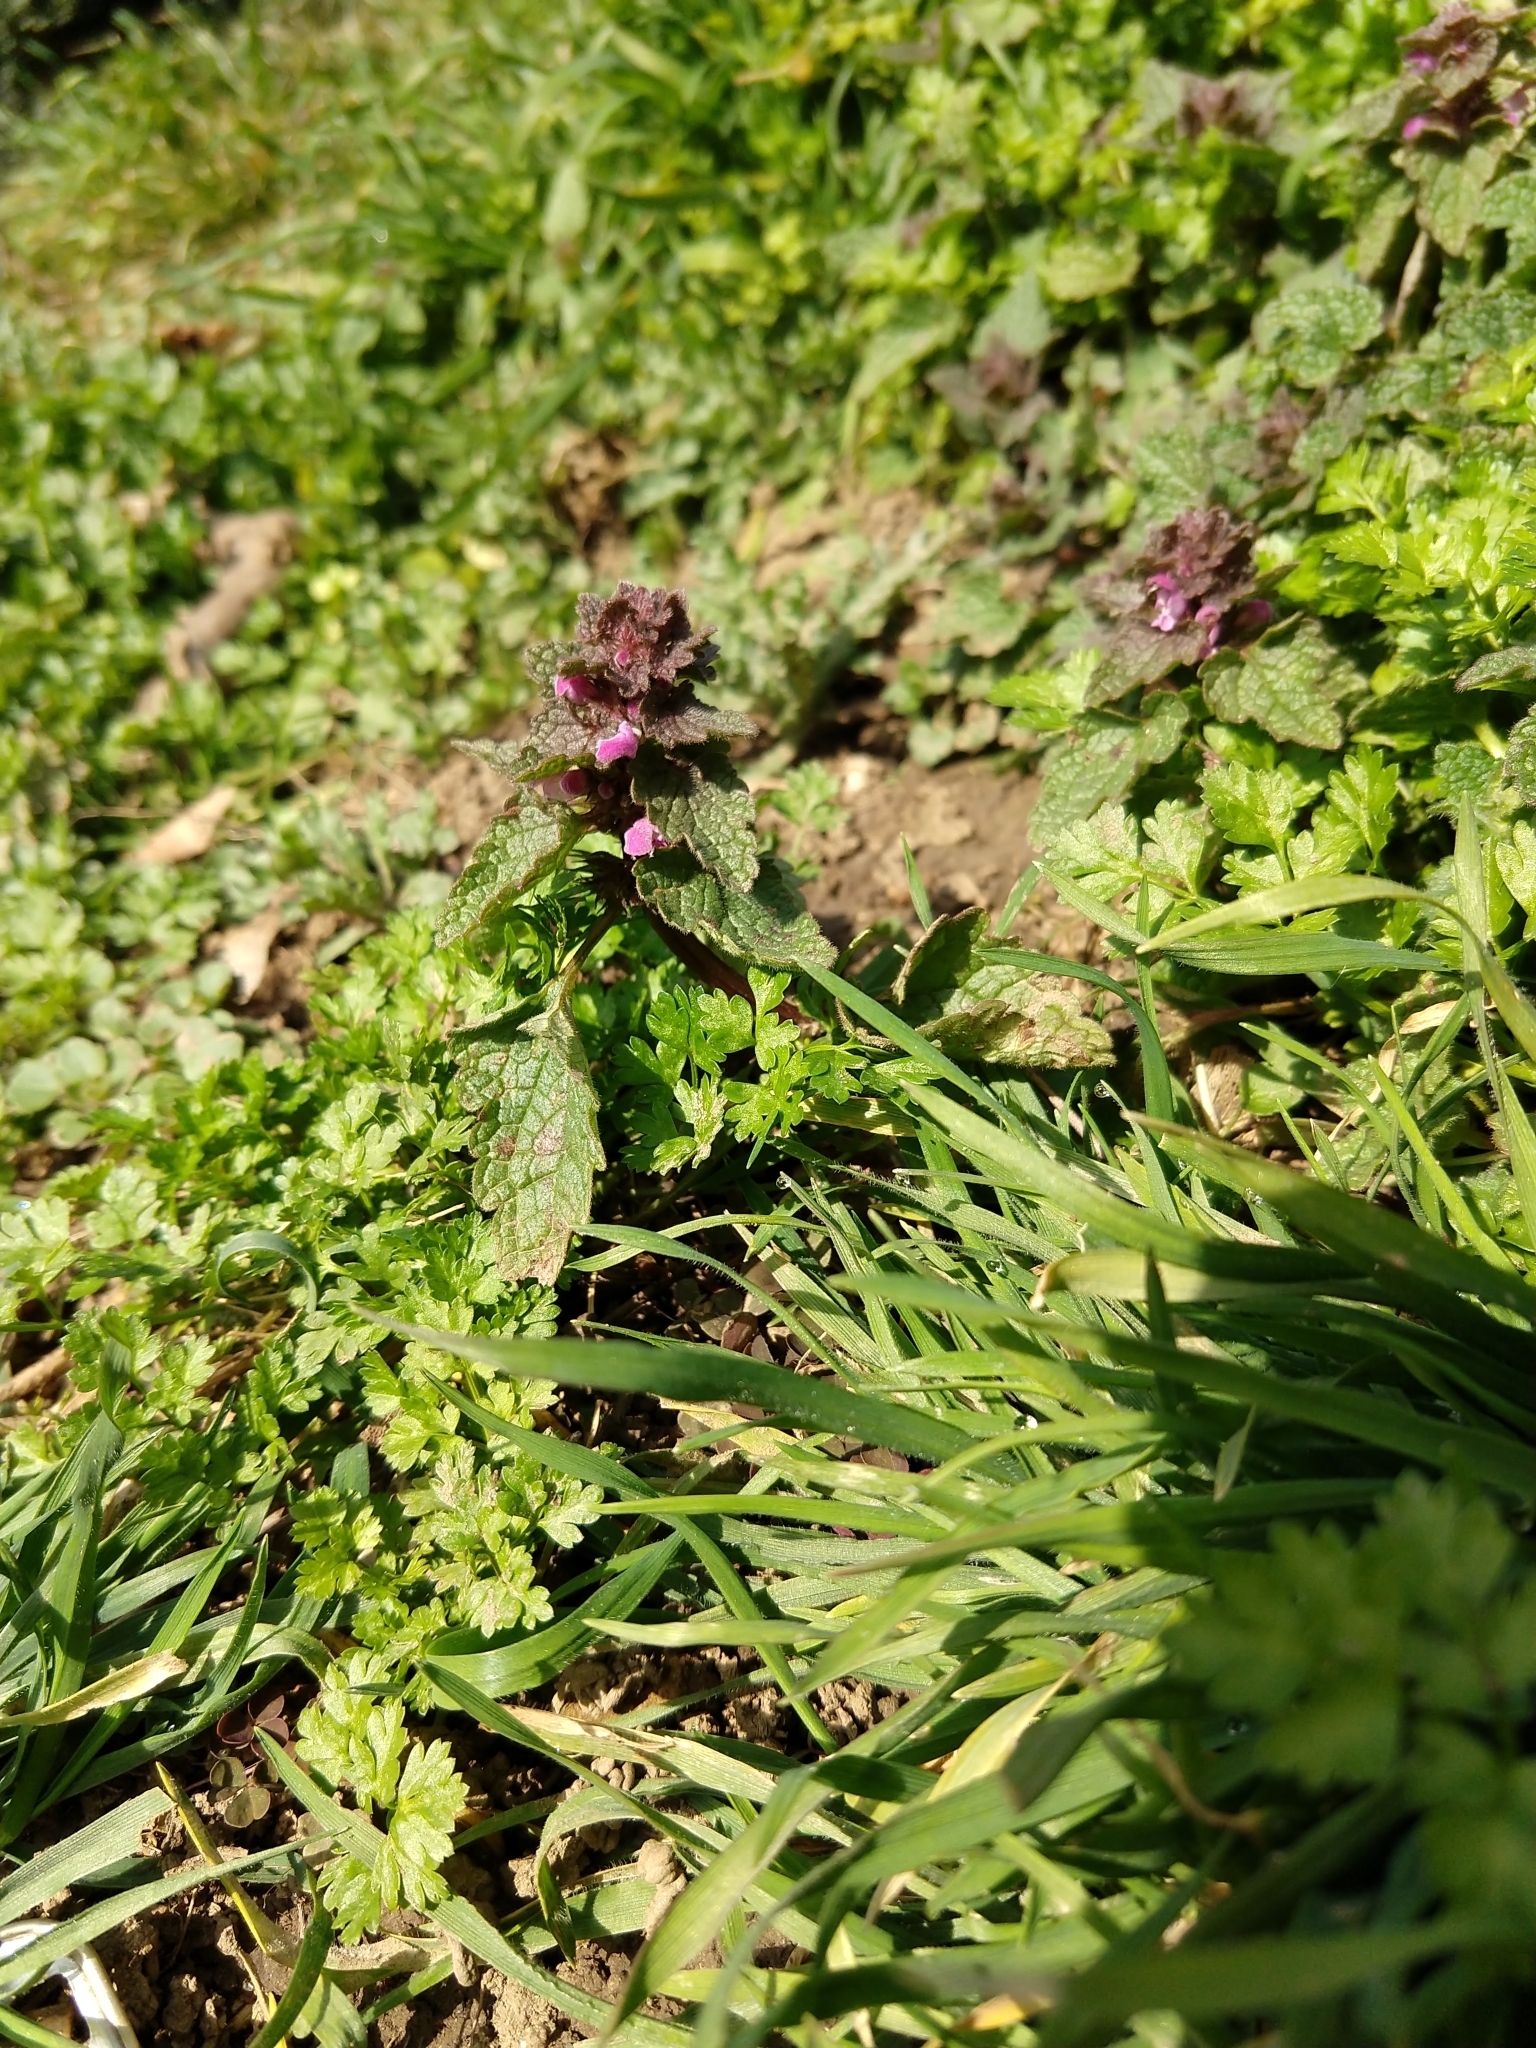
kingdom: Plantae
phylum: Tracheophyta
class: Magnoliopsida
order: Lamiales
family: Lamiaceae
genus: Lamium
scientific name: Lamium purpureum
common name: Red dead-nettle
